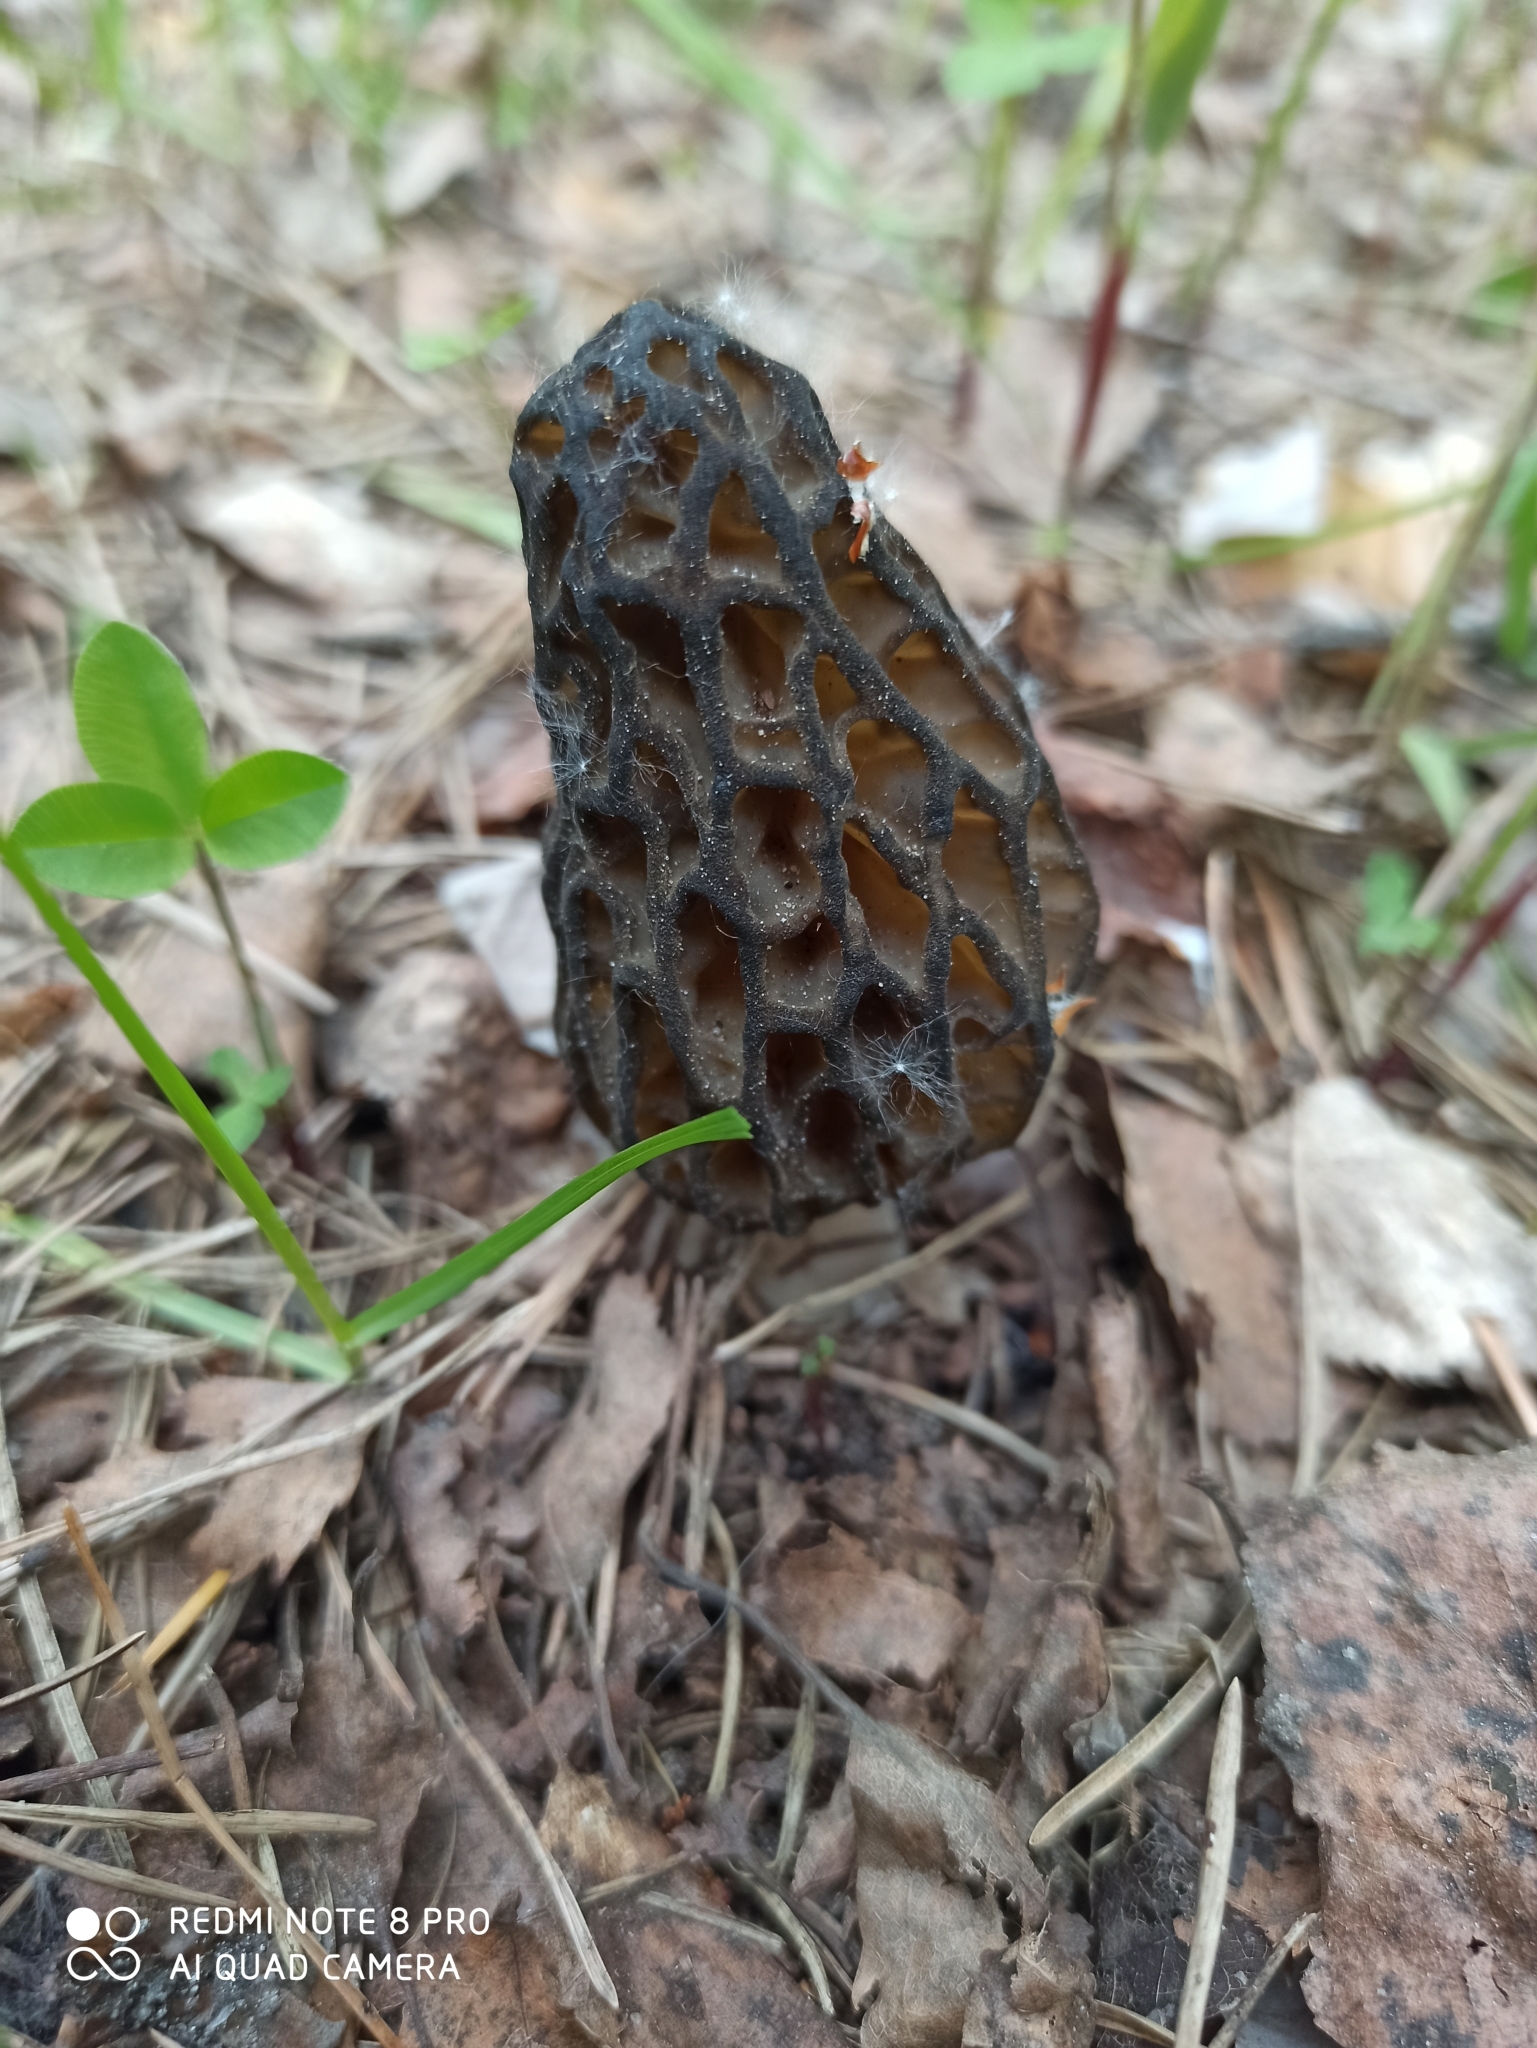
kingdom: Fungi
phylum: Ascomycota
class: Pezizomycetes
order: Pezizales
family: Morchellaceae
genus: Morchella
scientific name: Morchella
